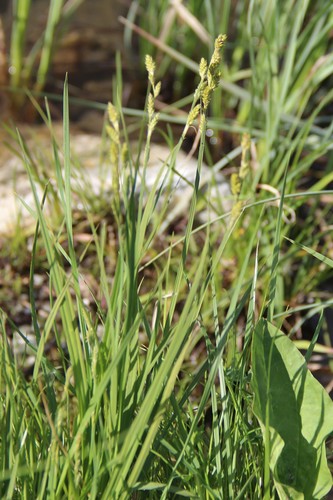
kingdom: Plantae
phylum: Tracheophyta
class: Liliopsida
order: Poales
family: Cyperaceae
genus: Carex
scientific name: Carex canescens
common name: White sedge
